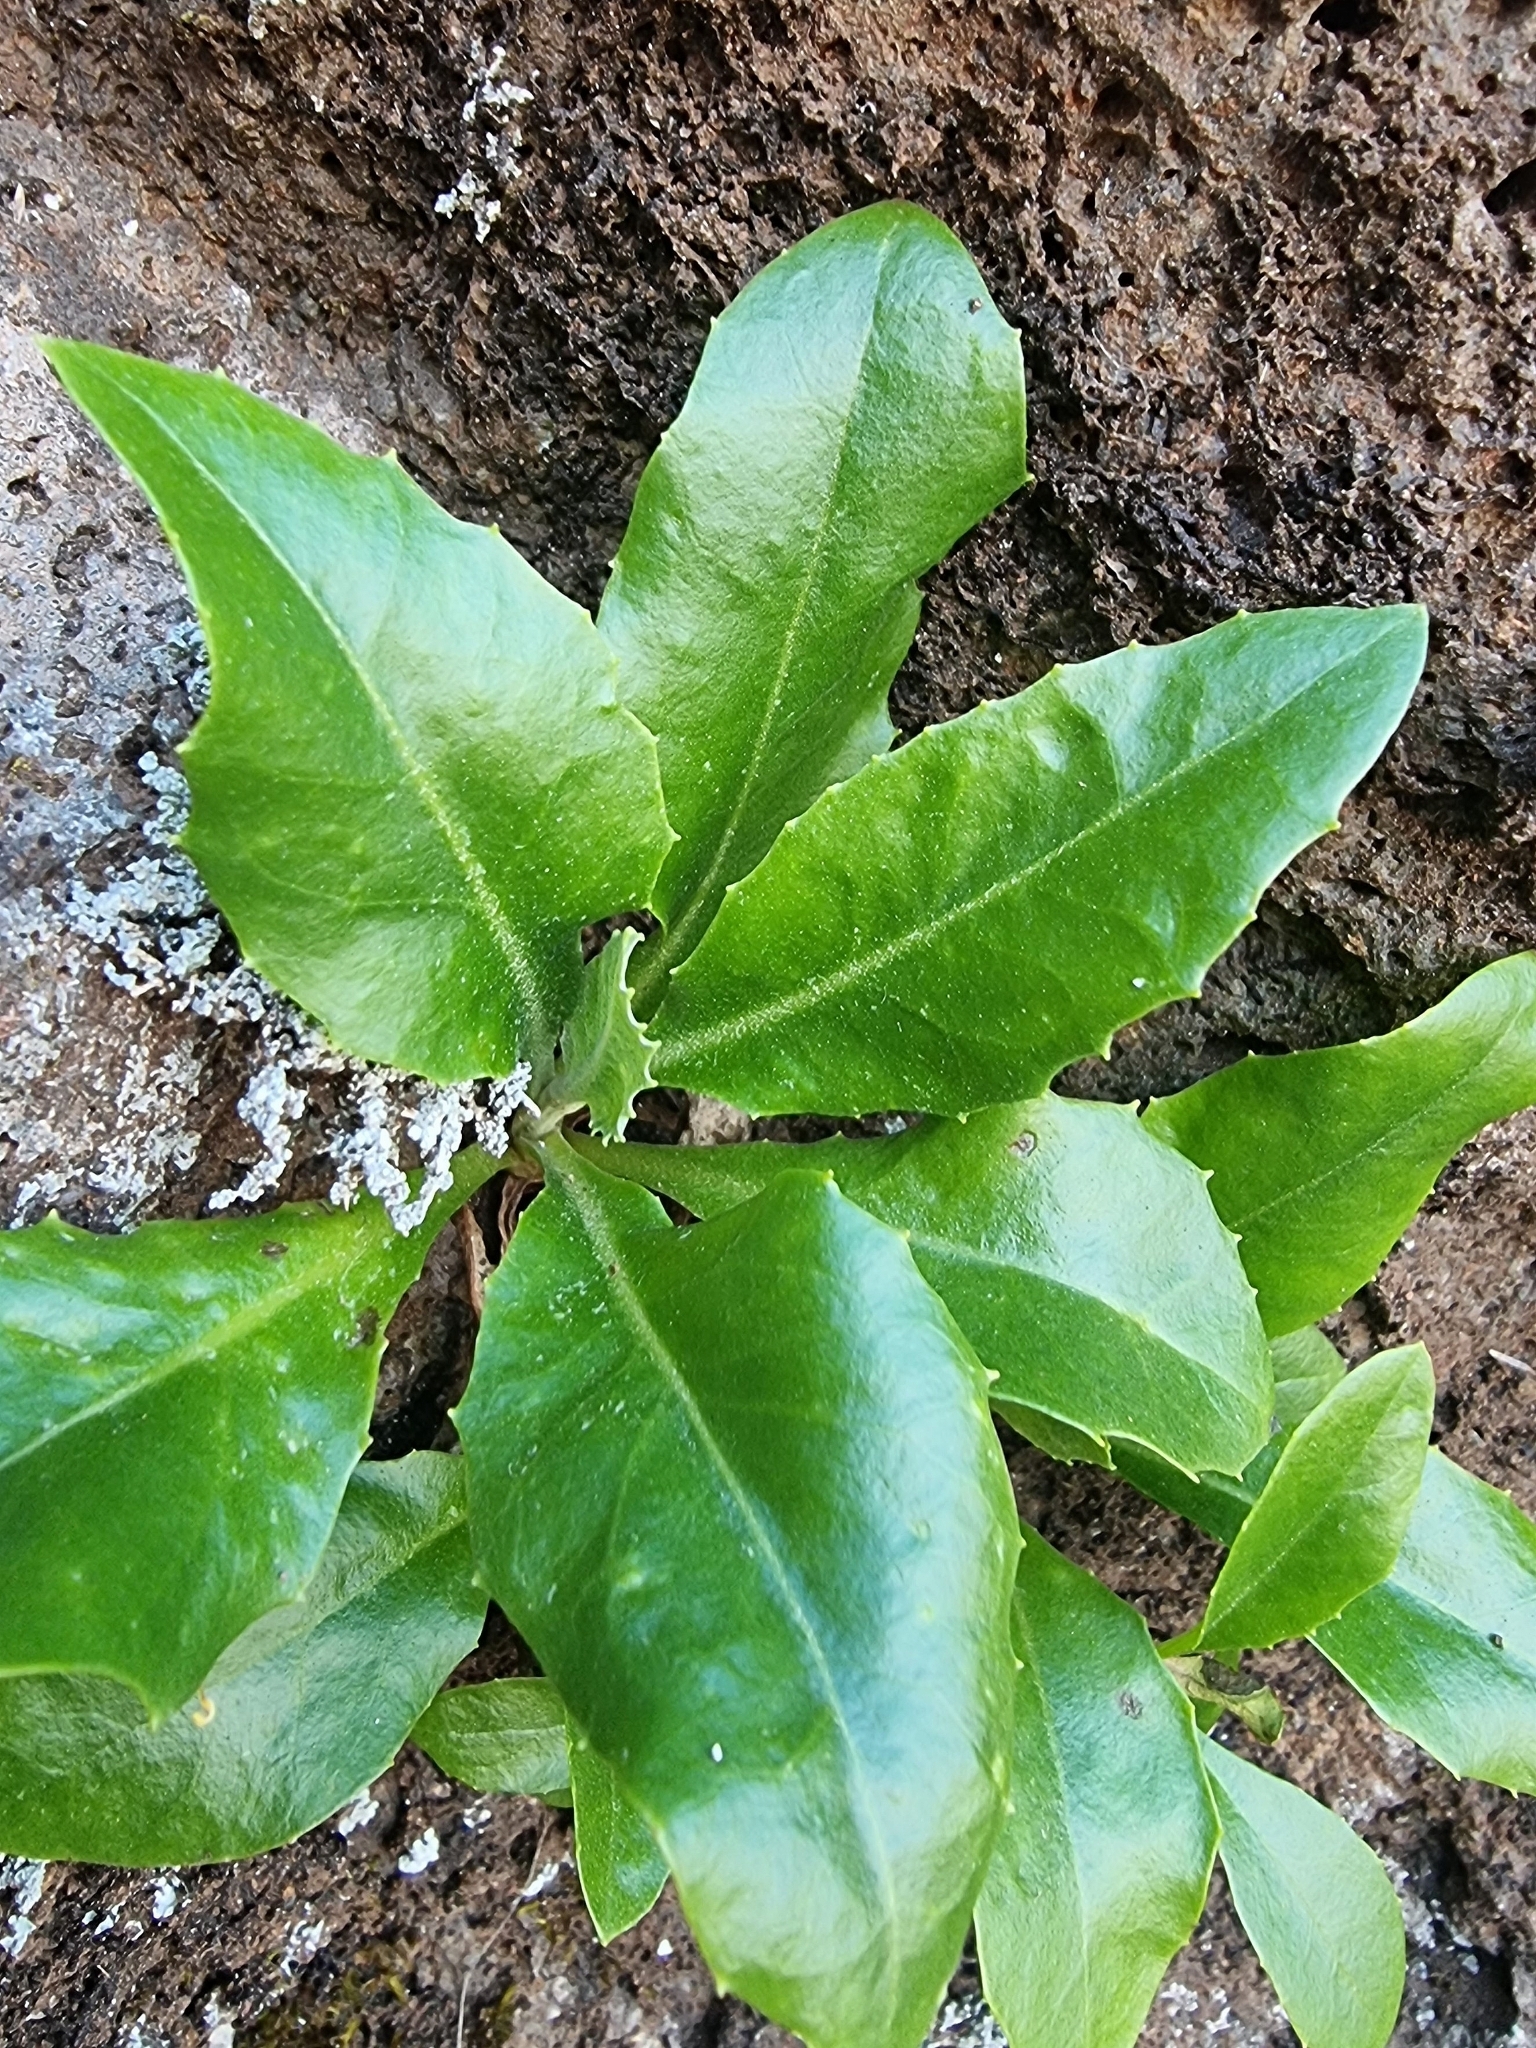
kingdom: Plantae
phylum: Tracheophyta
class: Magnoliopsida
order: Asterales
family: Asteraceae
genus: Tolpis
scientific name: Tolpis macrorhiza
